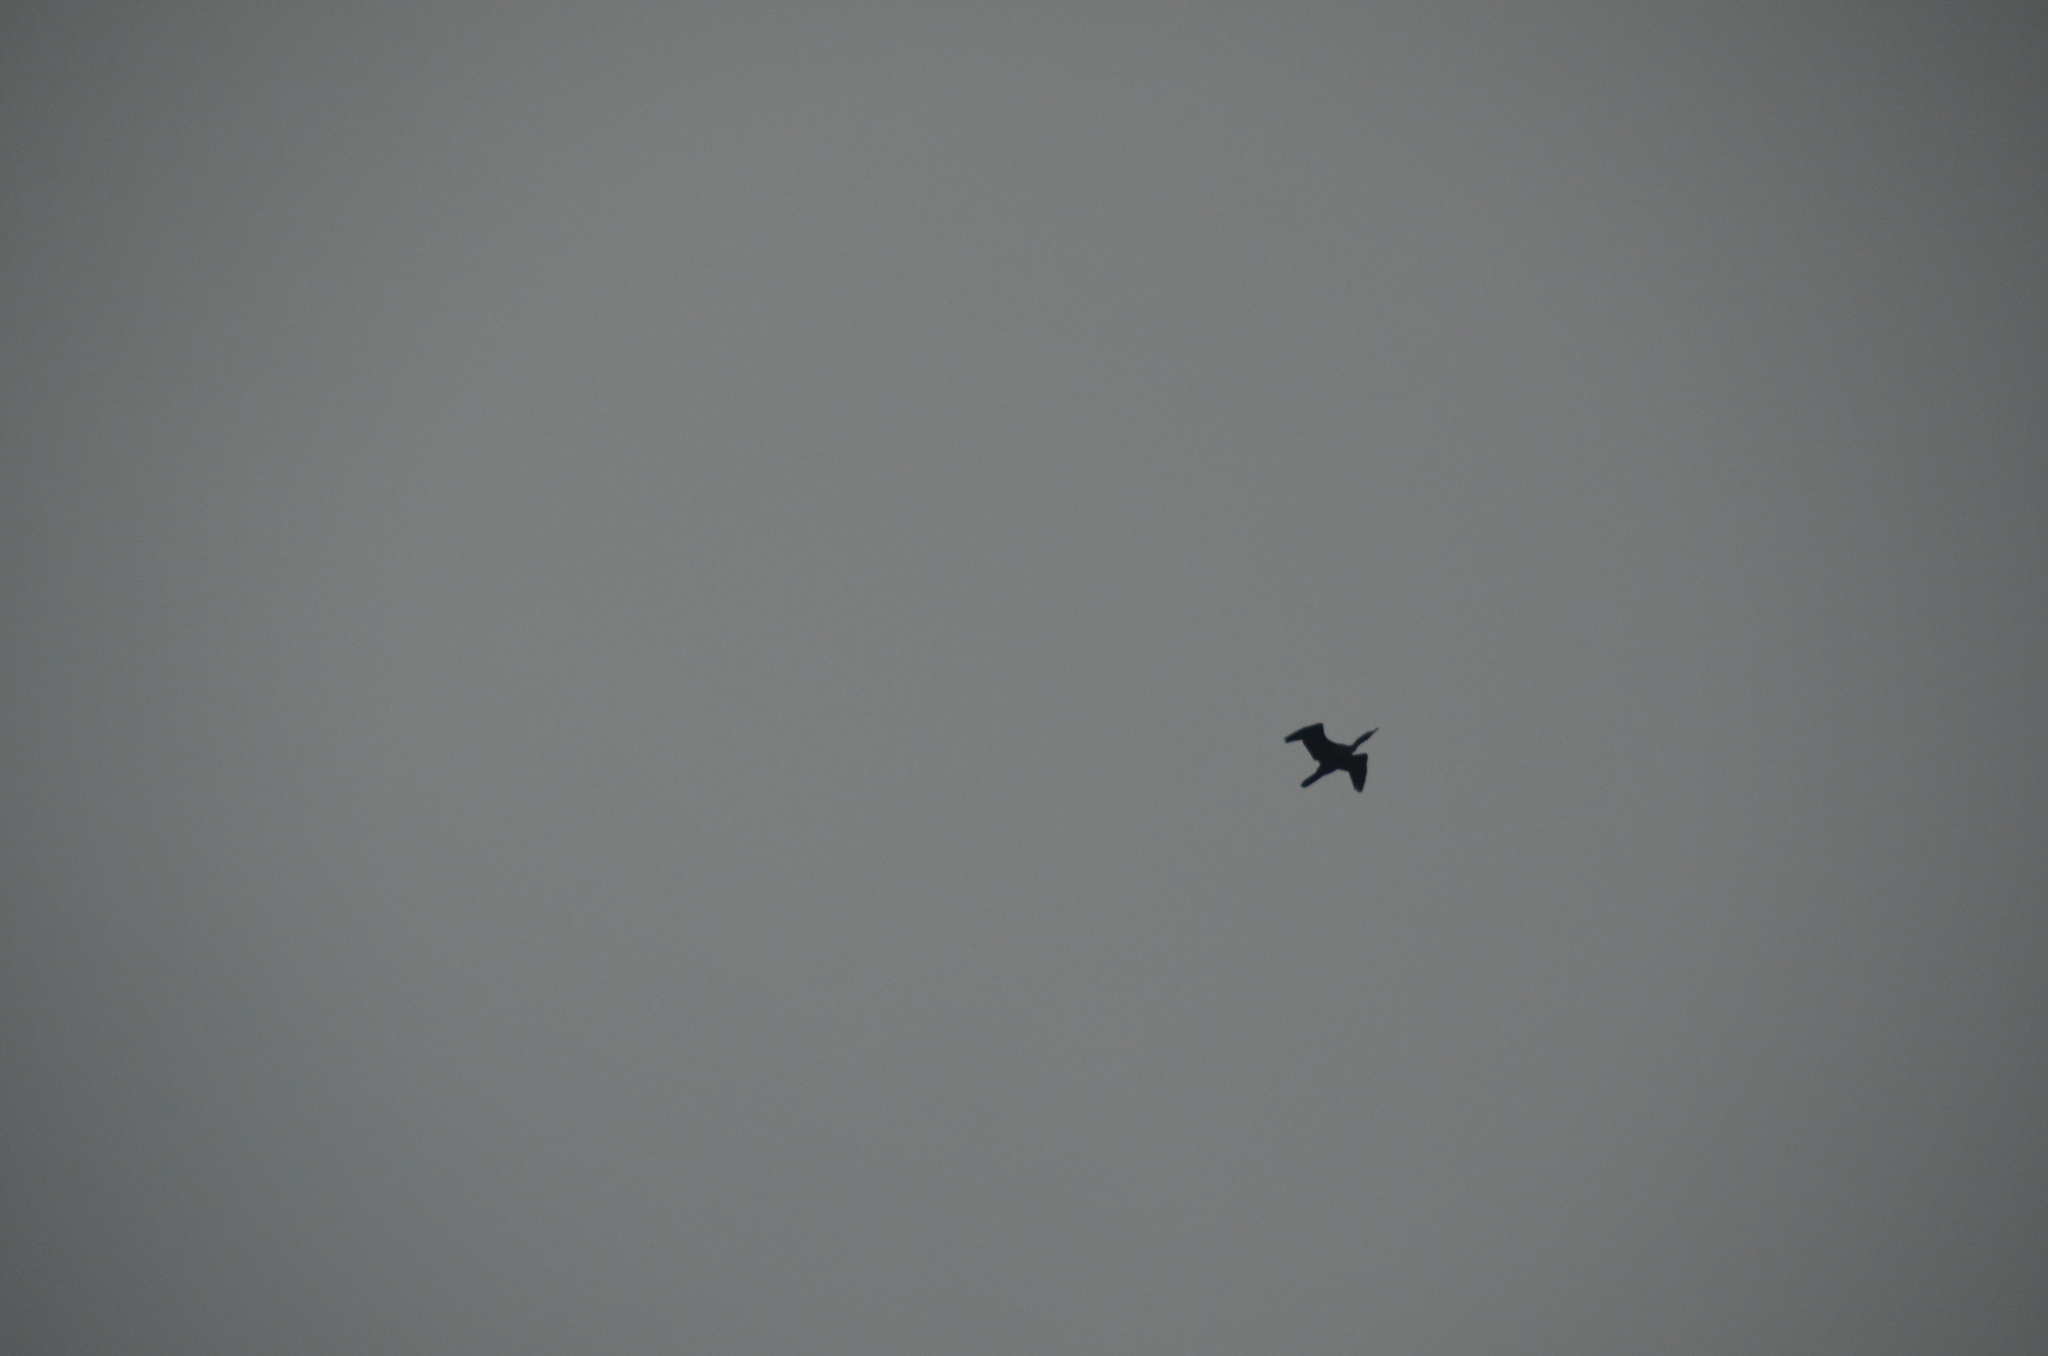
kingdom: Animalia
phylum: Chordata
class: Aves
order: Suliformes
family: Phalacrocoracidae
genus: Phalacrocorax
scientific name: Phalacrocorax auritus
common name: Double-crested cormorant
